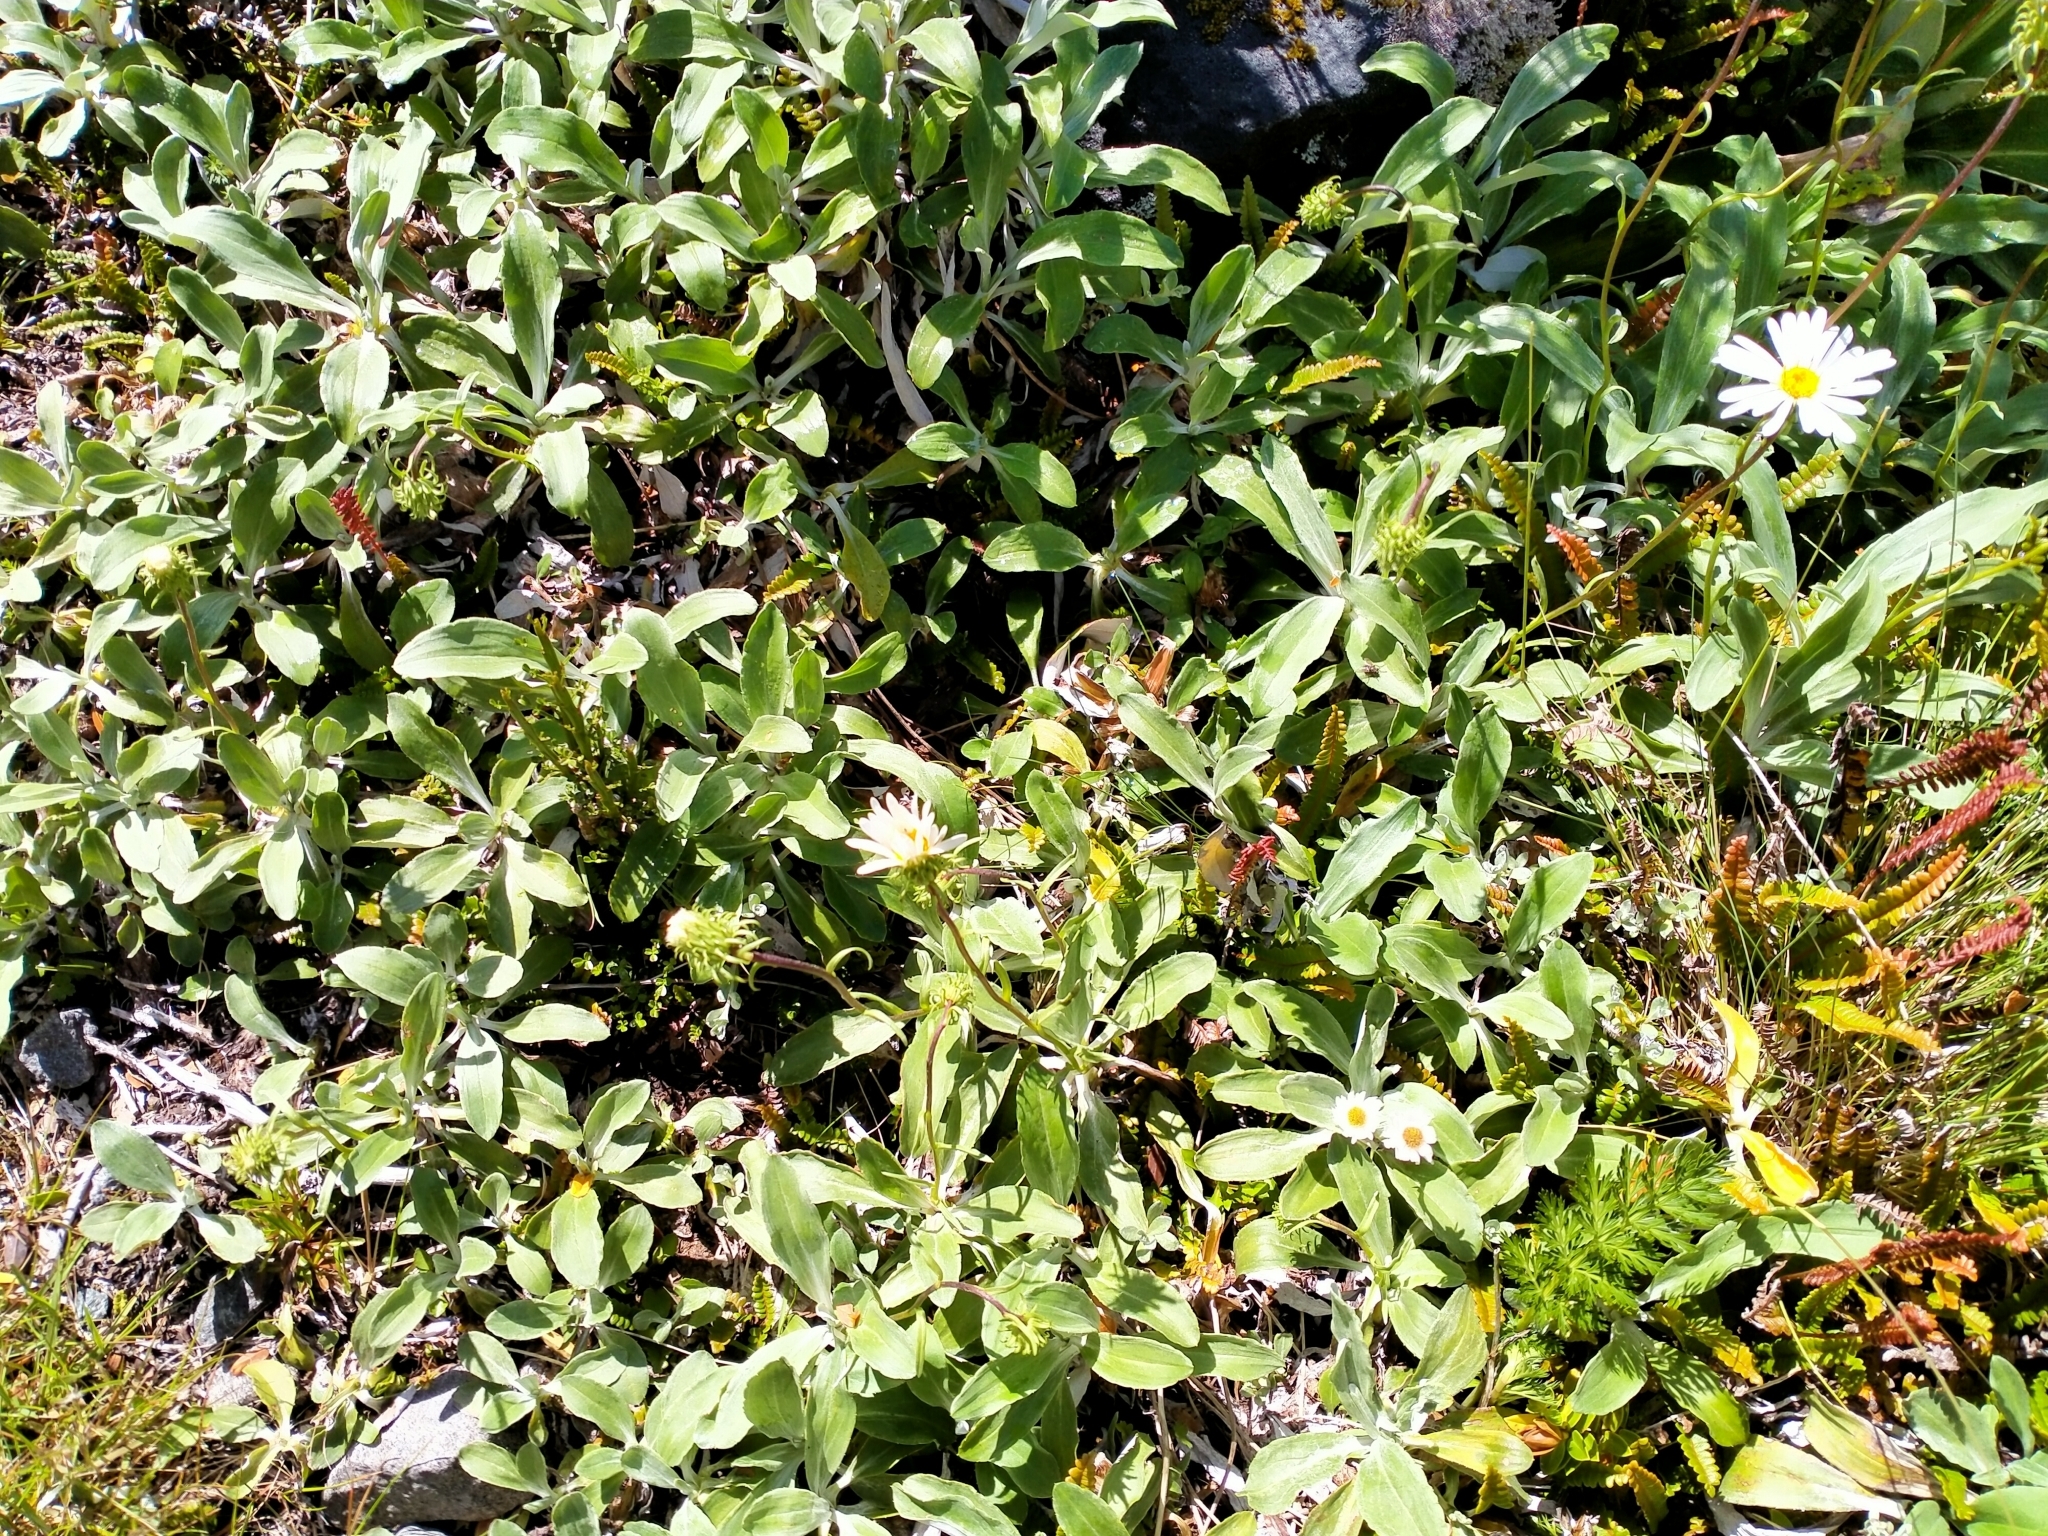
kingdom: Plantae
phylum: Tracheophyta
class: Magnoliopsida
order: Asterales
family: Asteraceae
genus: Celmisia
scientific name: Celmisia durietzii
